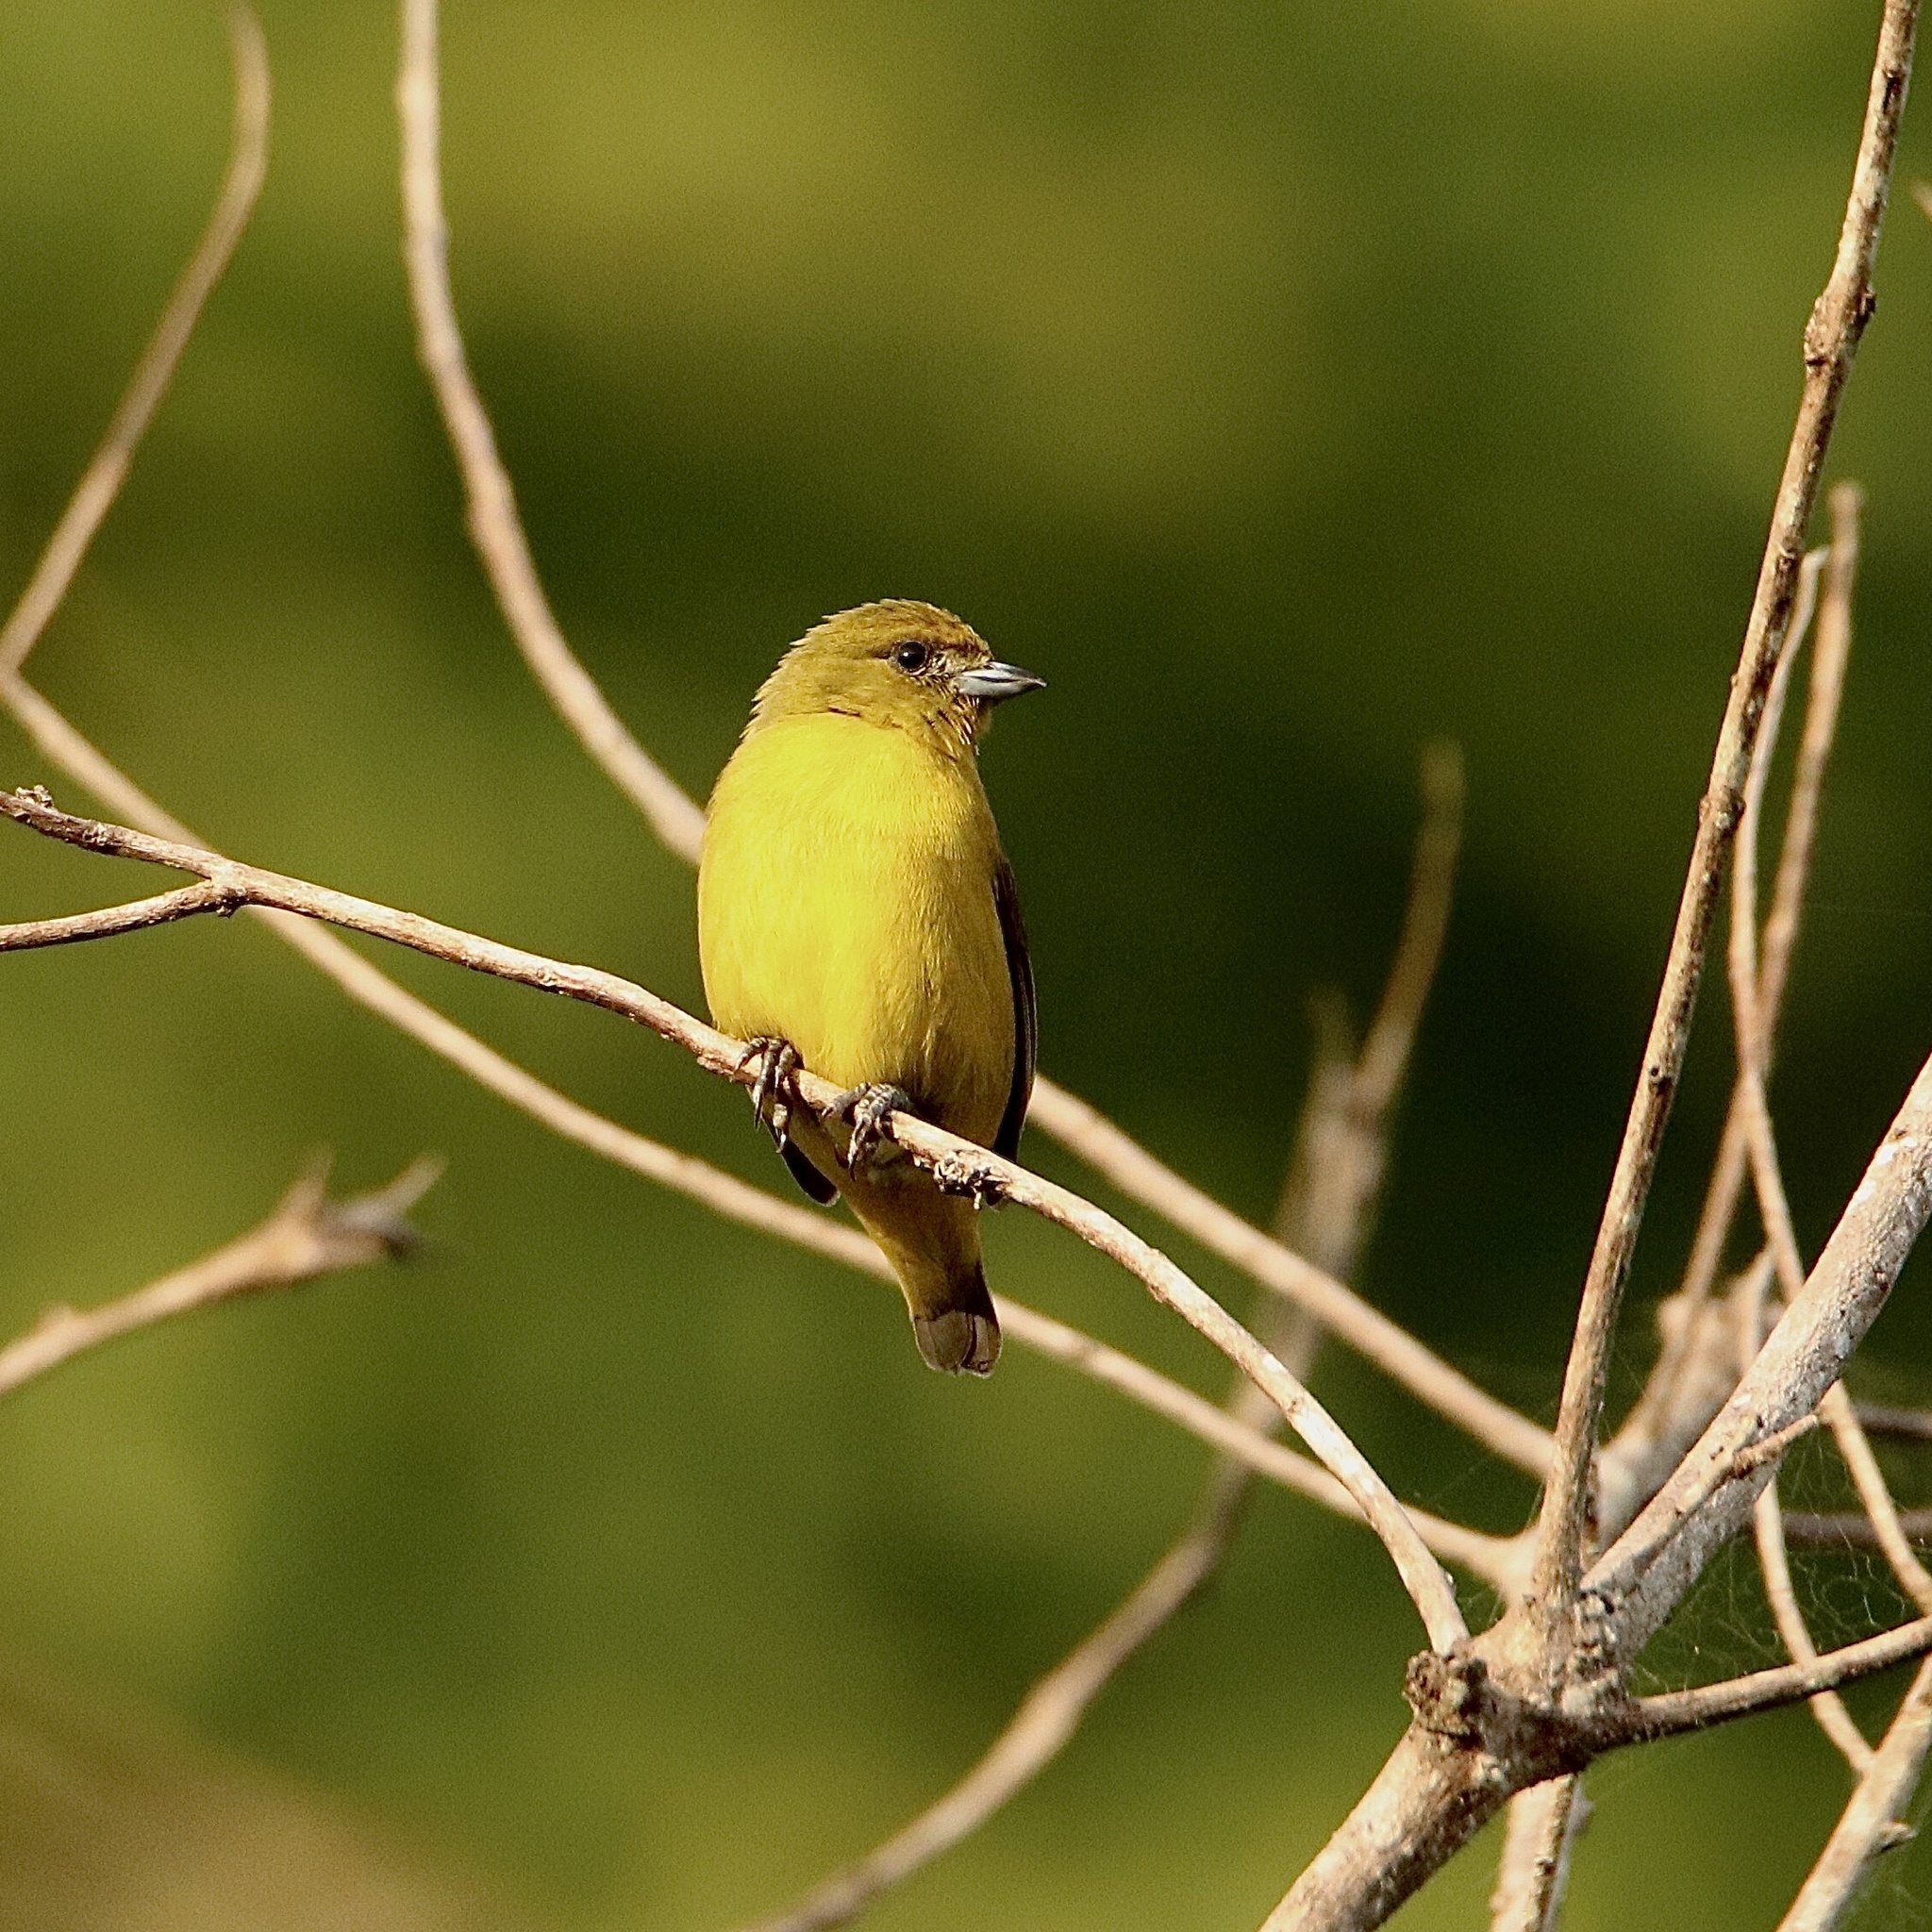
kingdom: Animalia
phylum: Chordata
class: Aves
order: Passeriformes
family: Fringillidae
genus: Euphonia
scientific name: Euphonia luteicapilla
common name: Yellow-crowned euphonia
